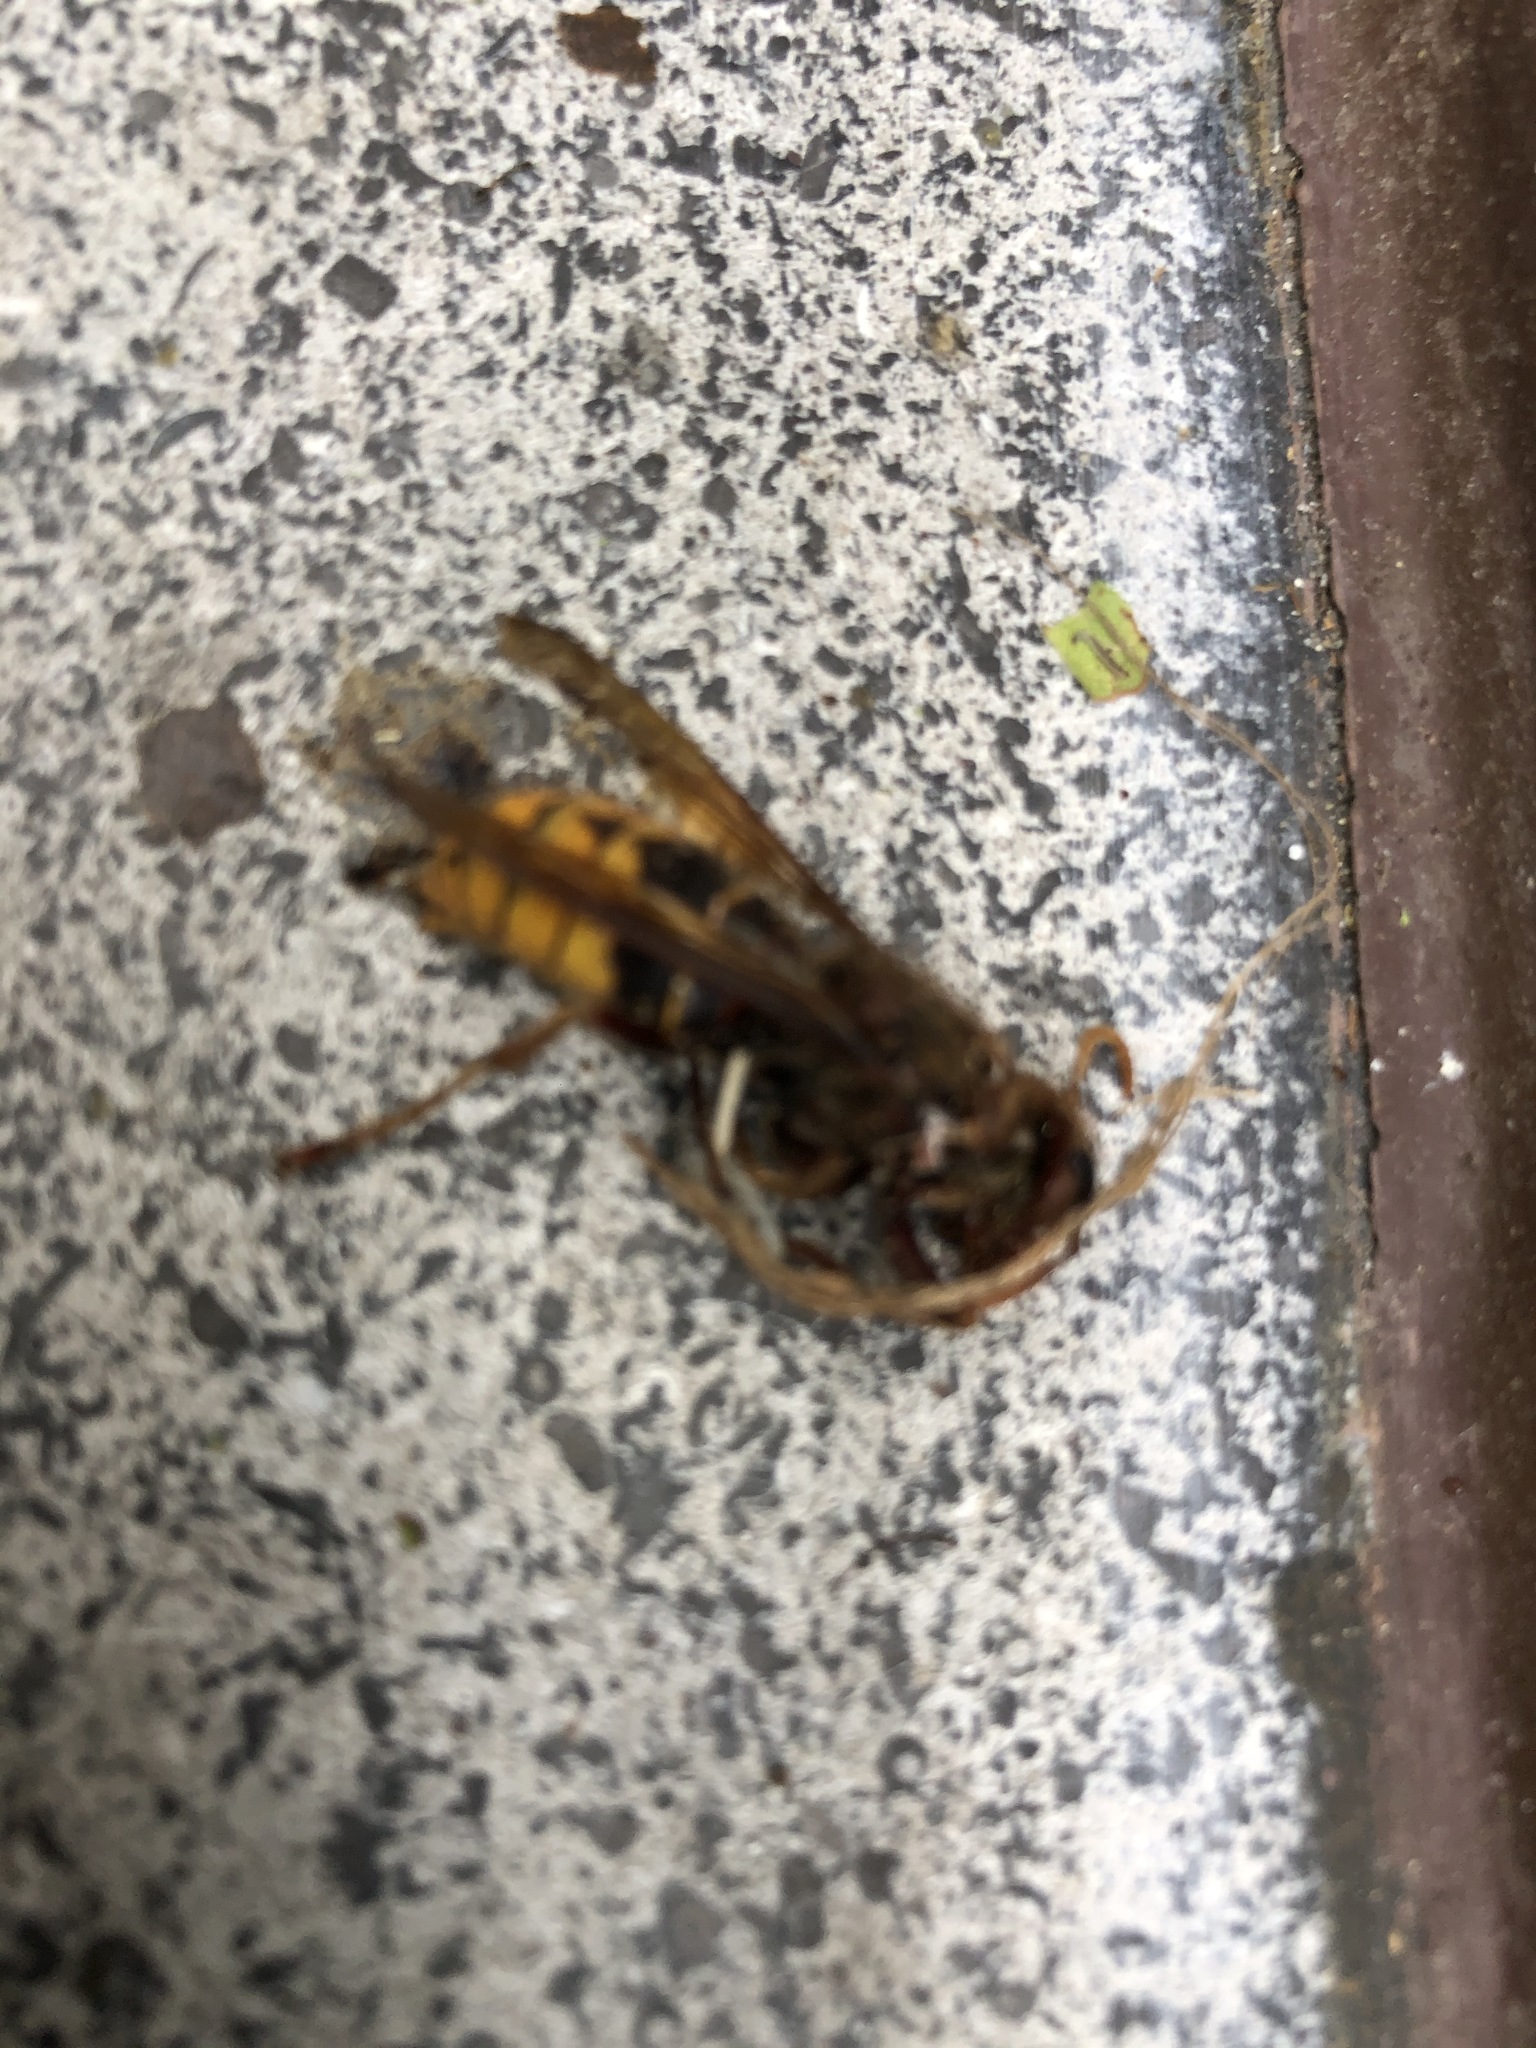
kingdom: Animalia
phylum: Arthropoda
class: Insecta
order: Hymenoptera
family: Vespidae
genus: Vespa
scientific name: Vespa crabro
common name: Hornet
